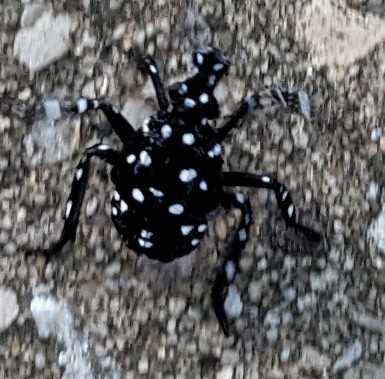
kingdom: Animalia
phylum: Arthropoda
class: Insecta
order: Hemiptera
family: Fulgoridae
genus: Lycorma
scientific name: Lycorma delicatula
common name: Spotted lanternfly
